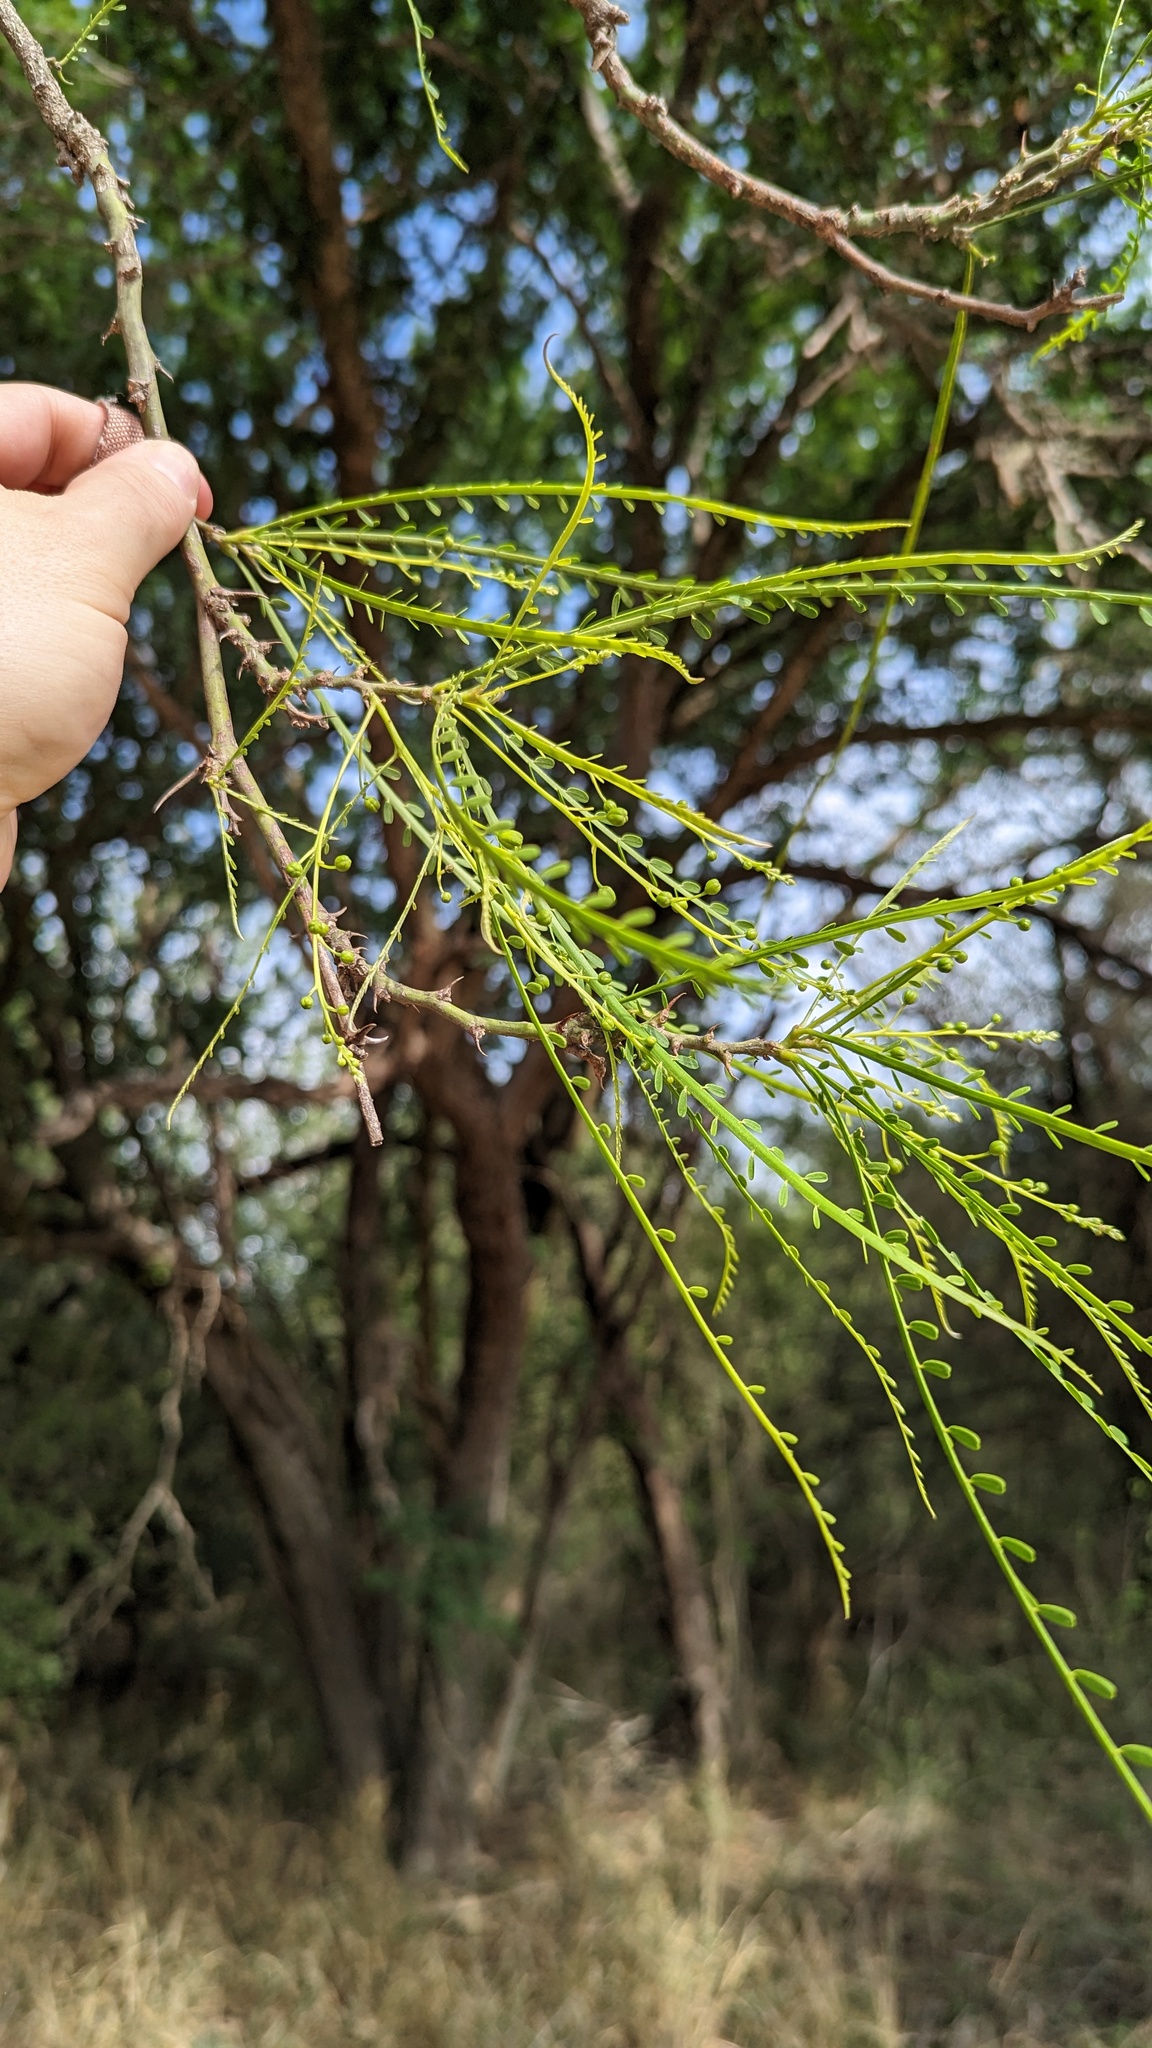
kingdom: Plantae
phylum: Tracheophyta
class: Magnoliopsida
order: Fabales
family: Fabaceae
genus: Parkinsonia
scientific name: Parkinsonia aculeata
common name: Jerusalem thorn
